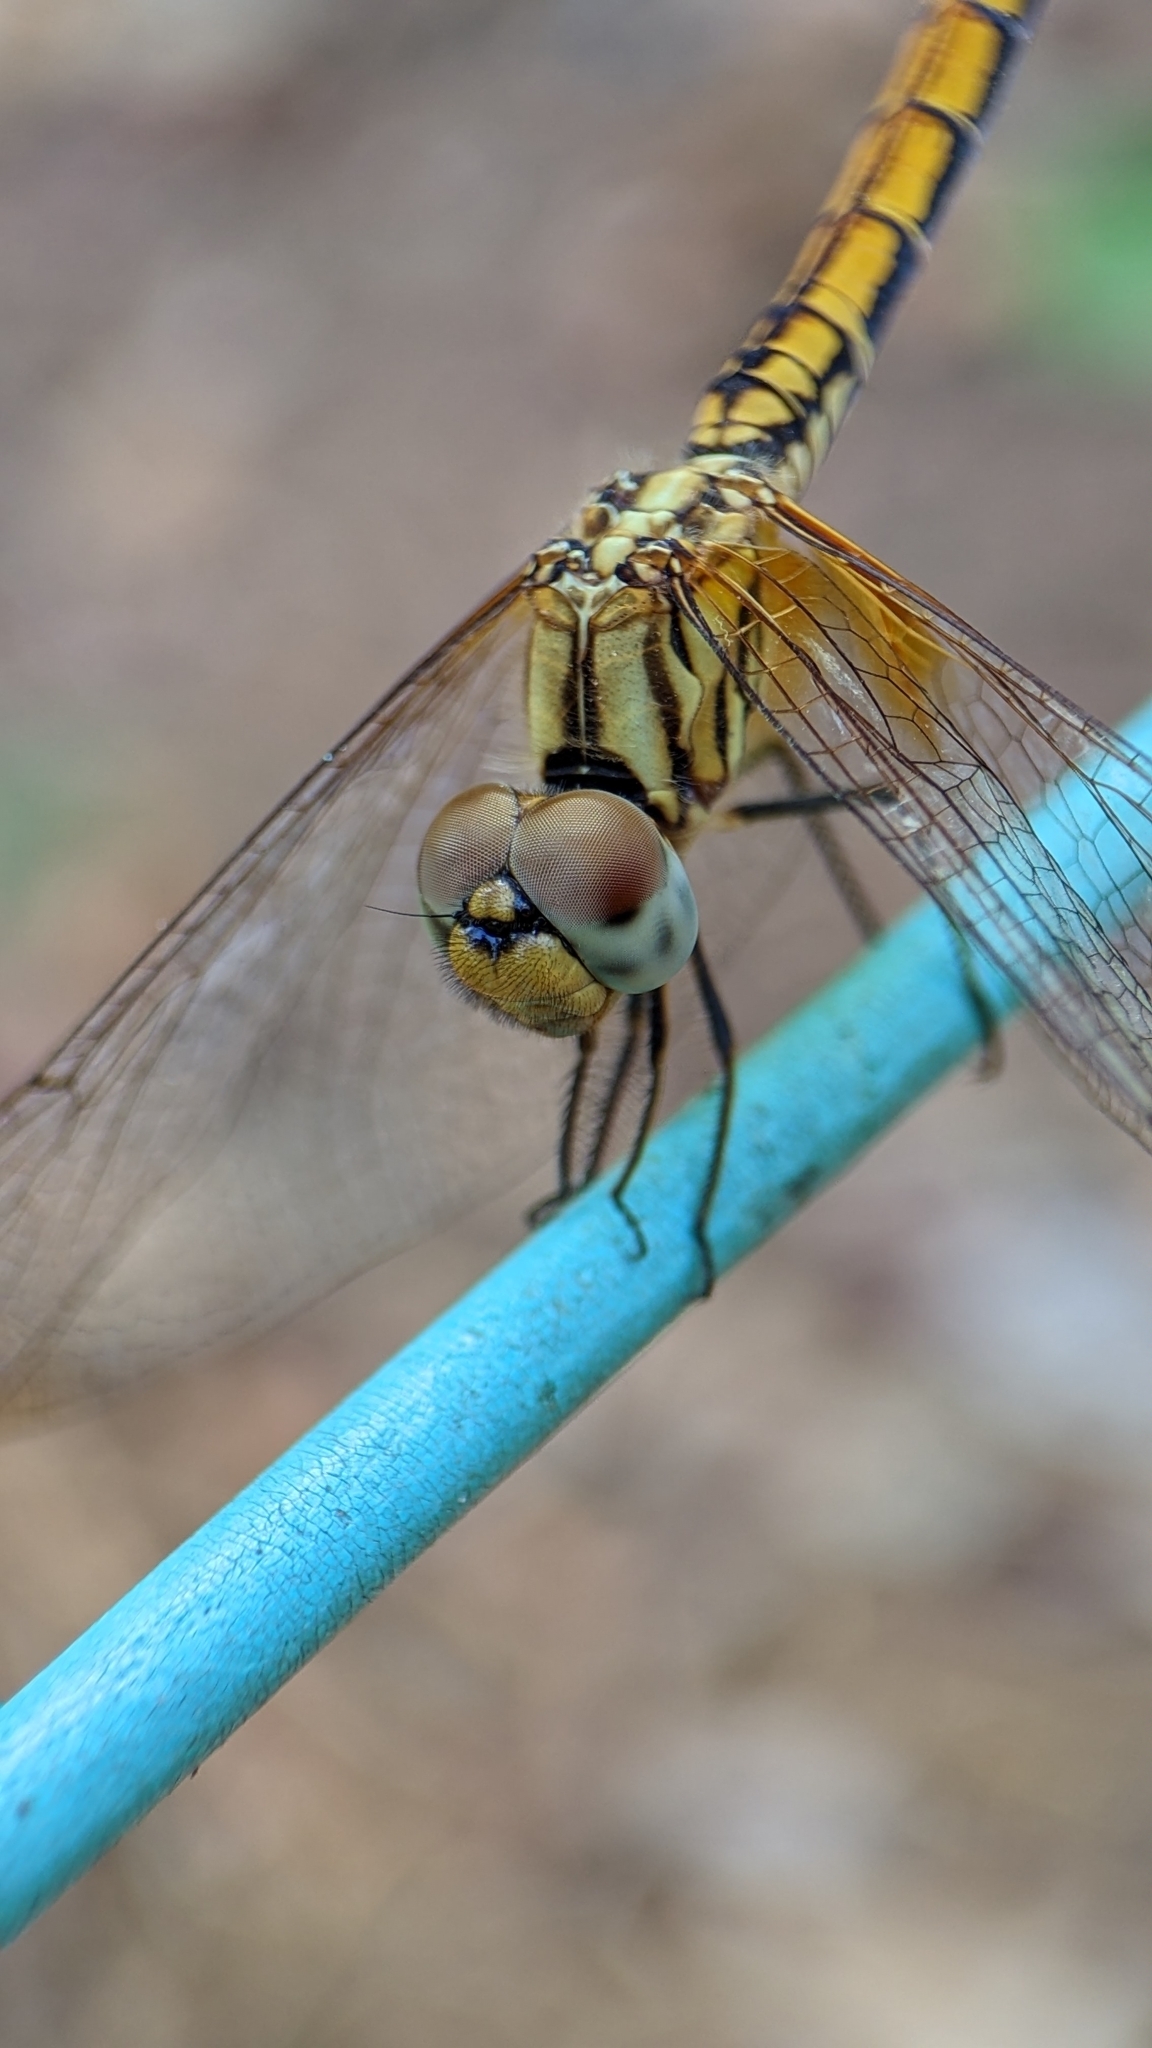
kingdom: Animalia
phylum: Arthropoda
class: Insecta
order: Odonata
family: Libellulidae
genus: Trithemis
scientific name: Trithemis aurora
